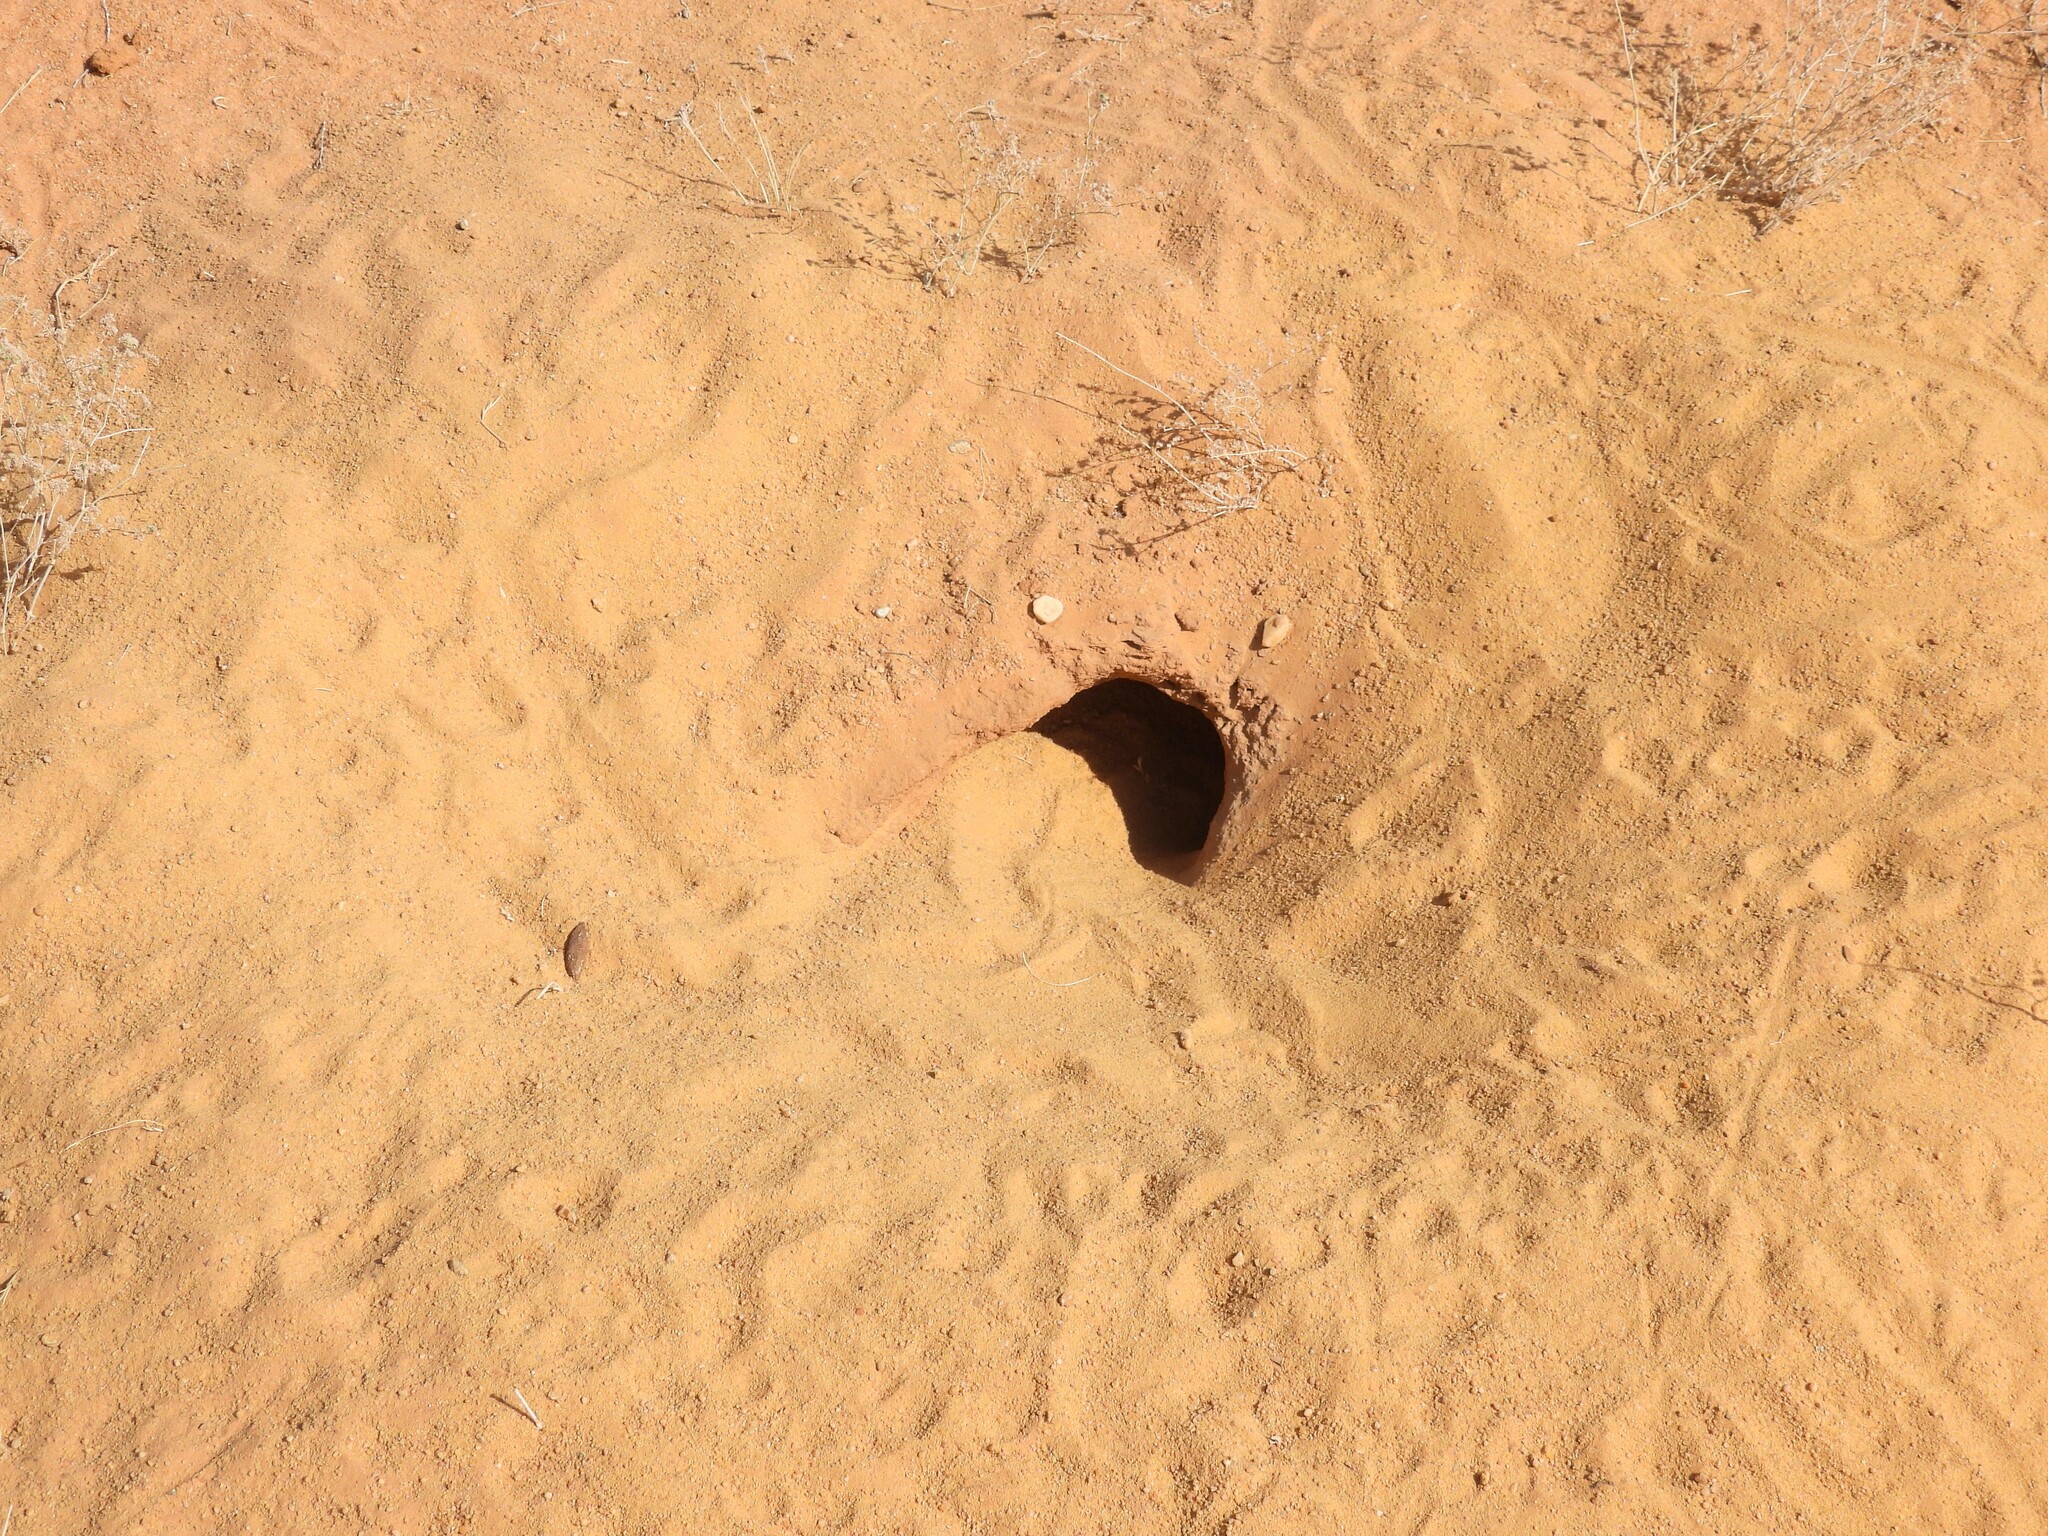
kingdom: Animalia
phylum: Chordata
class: Squamata
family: Agamidae
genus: Uromastyx
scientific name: Uromastyx aegyptia
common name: Egyptian mastigure
